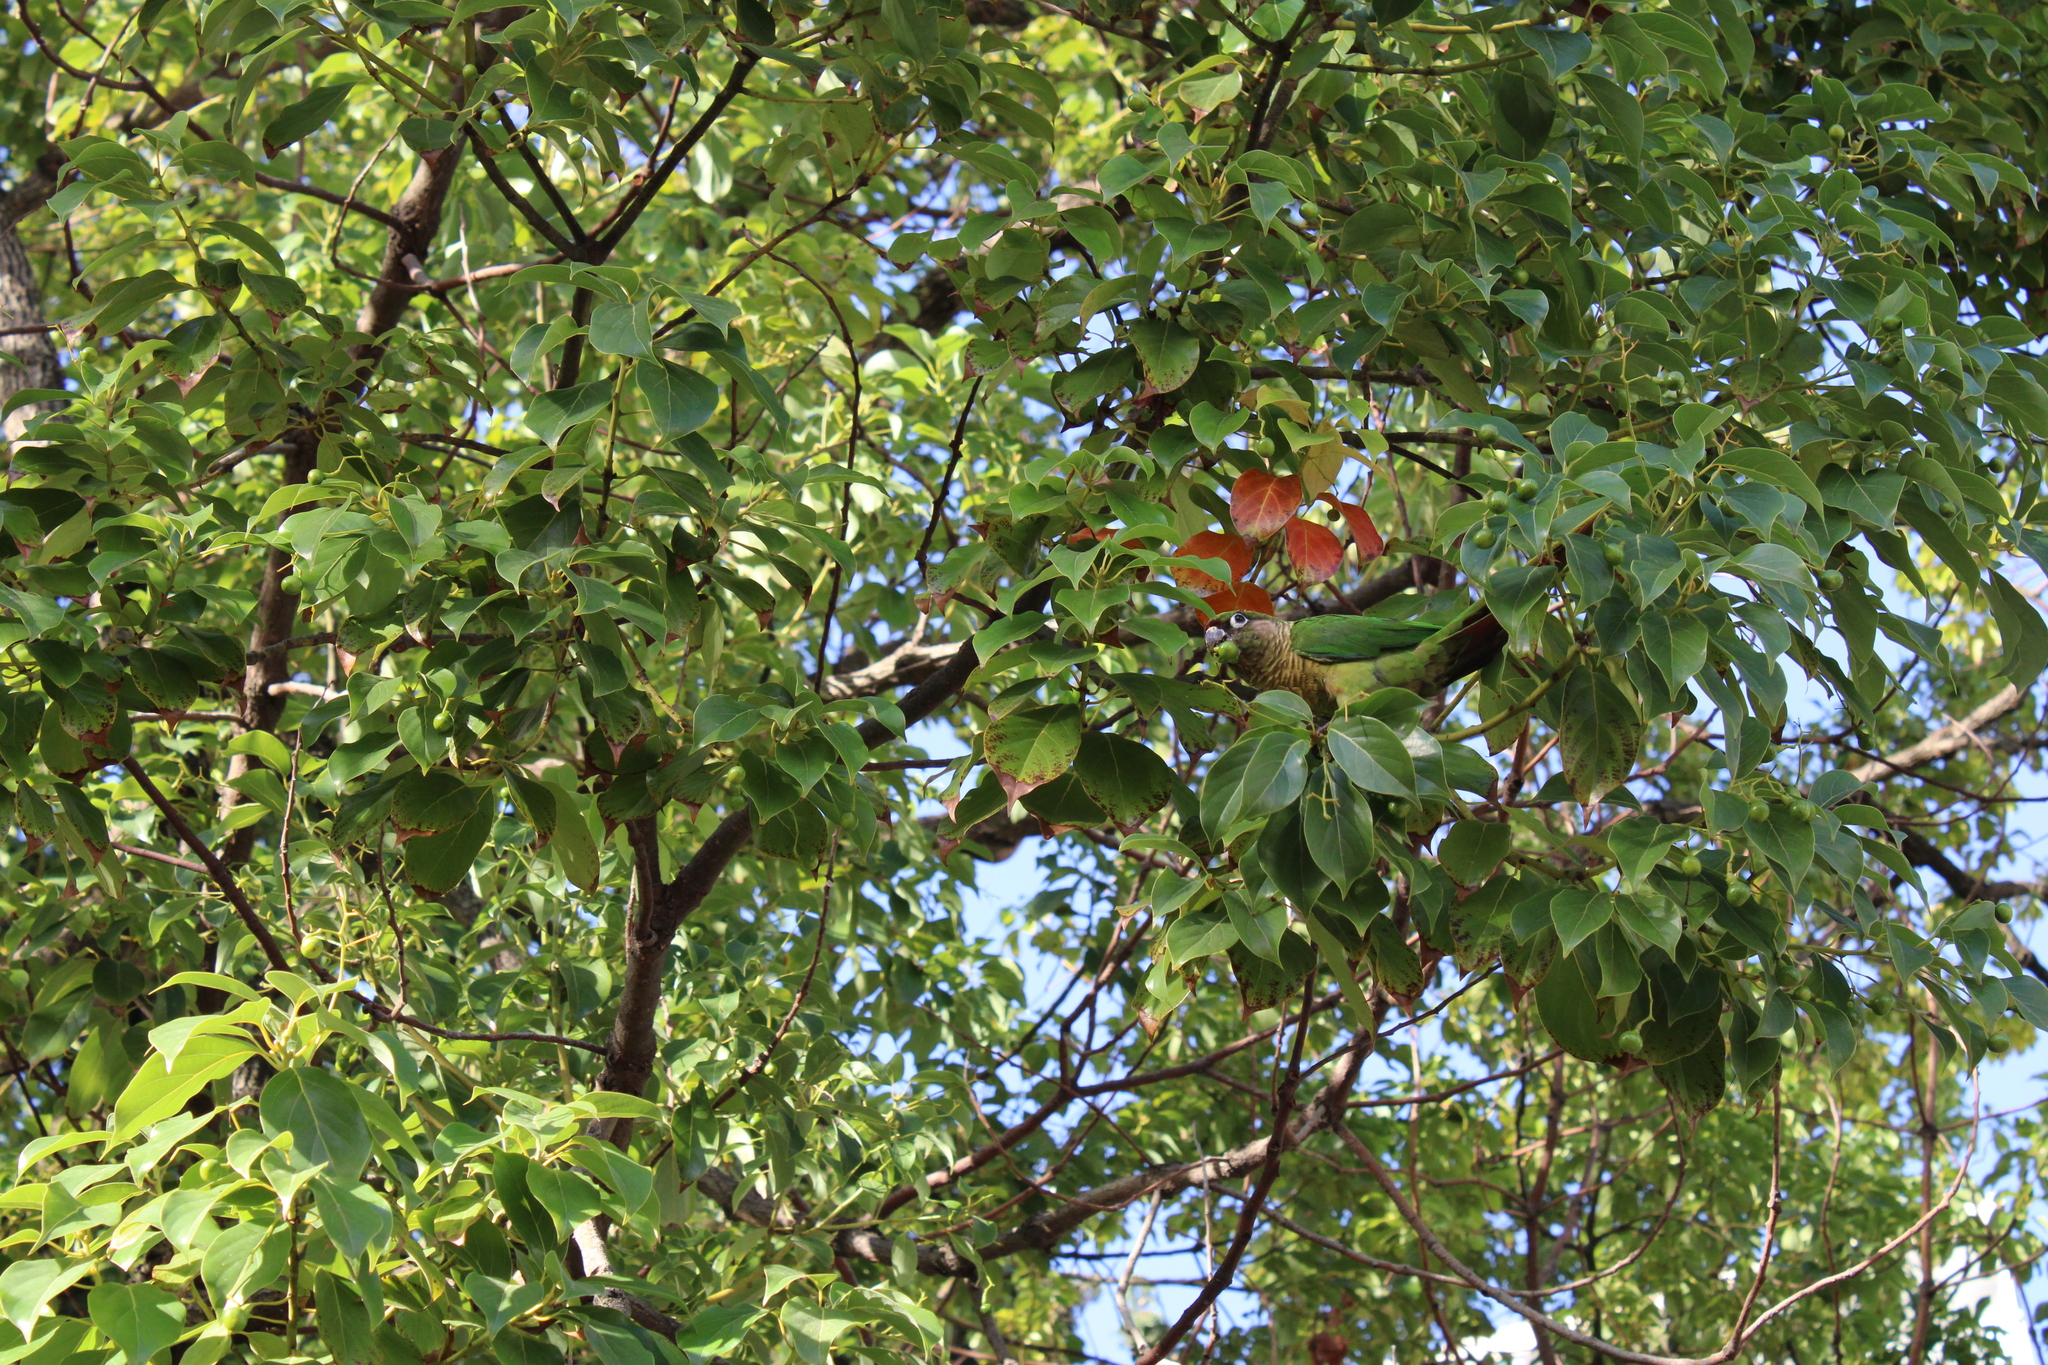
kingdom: Animalia
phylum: Chordata
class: Aves
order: Psittaciformes
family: Psittacidae
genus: Pyrrhura
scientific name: Pyrrhura frontalis
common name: Maroon-bellied parakeet
